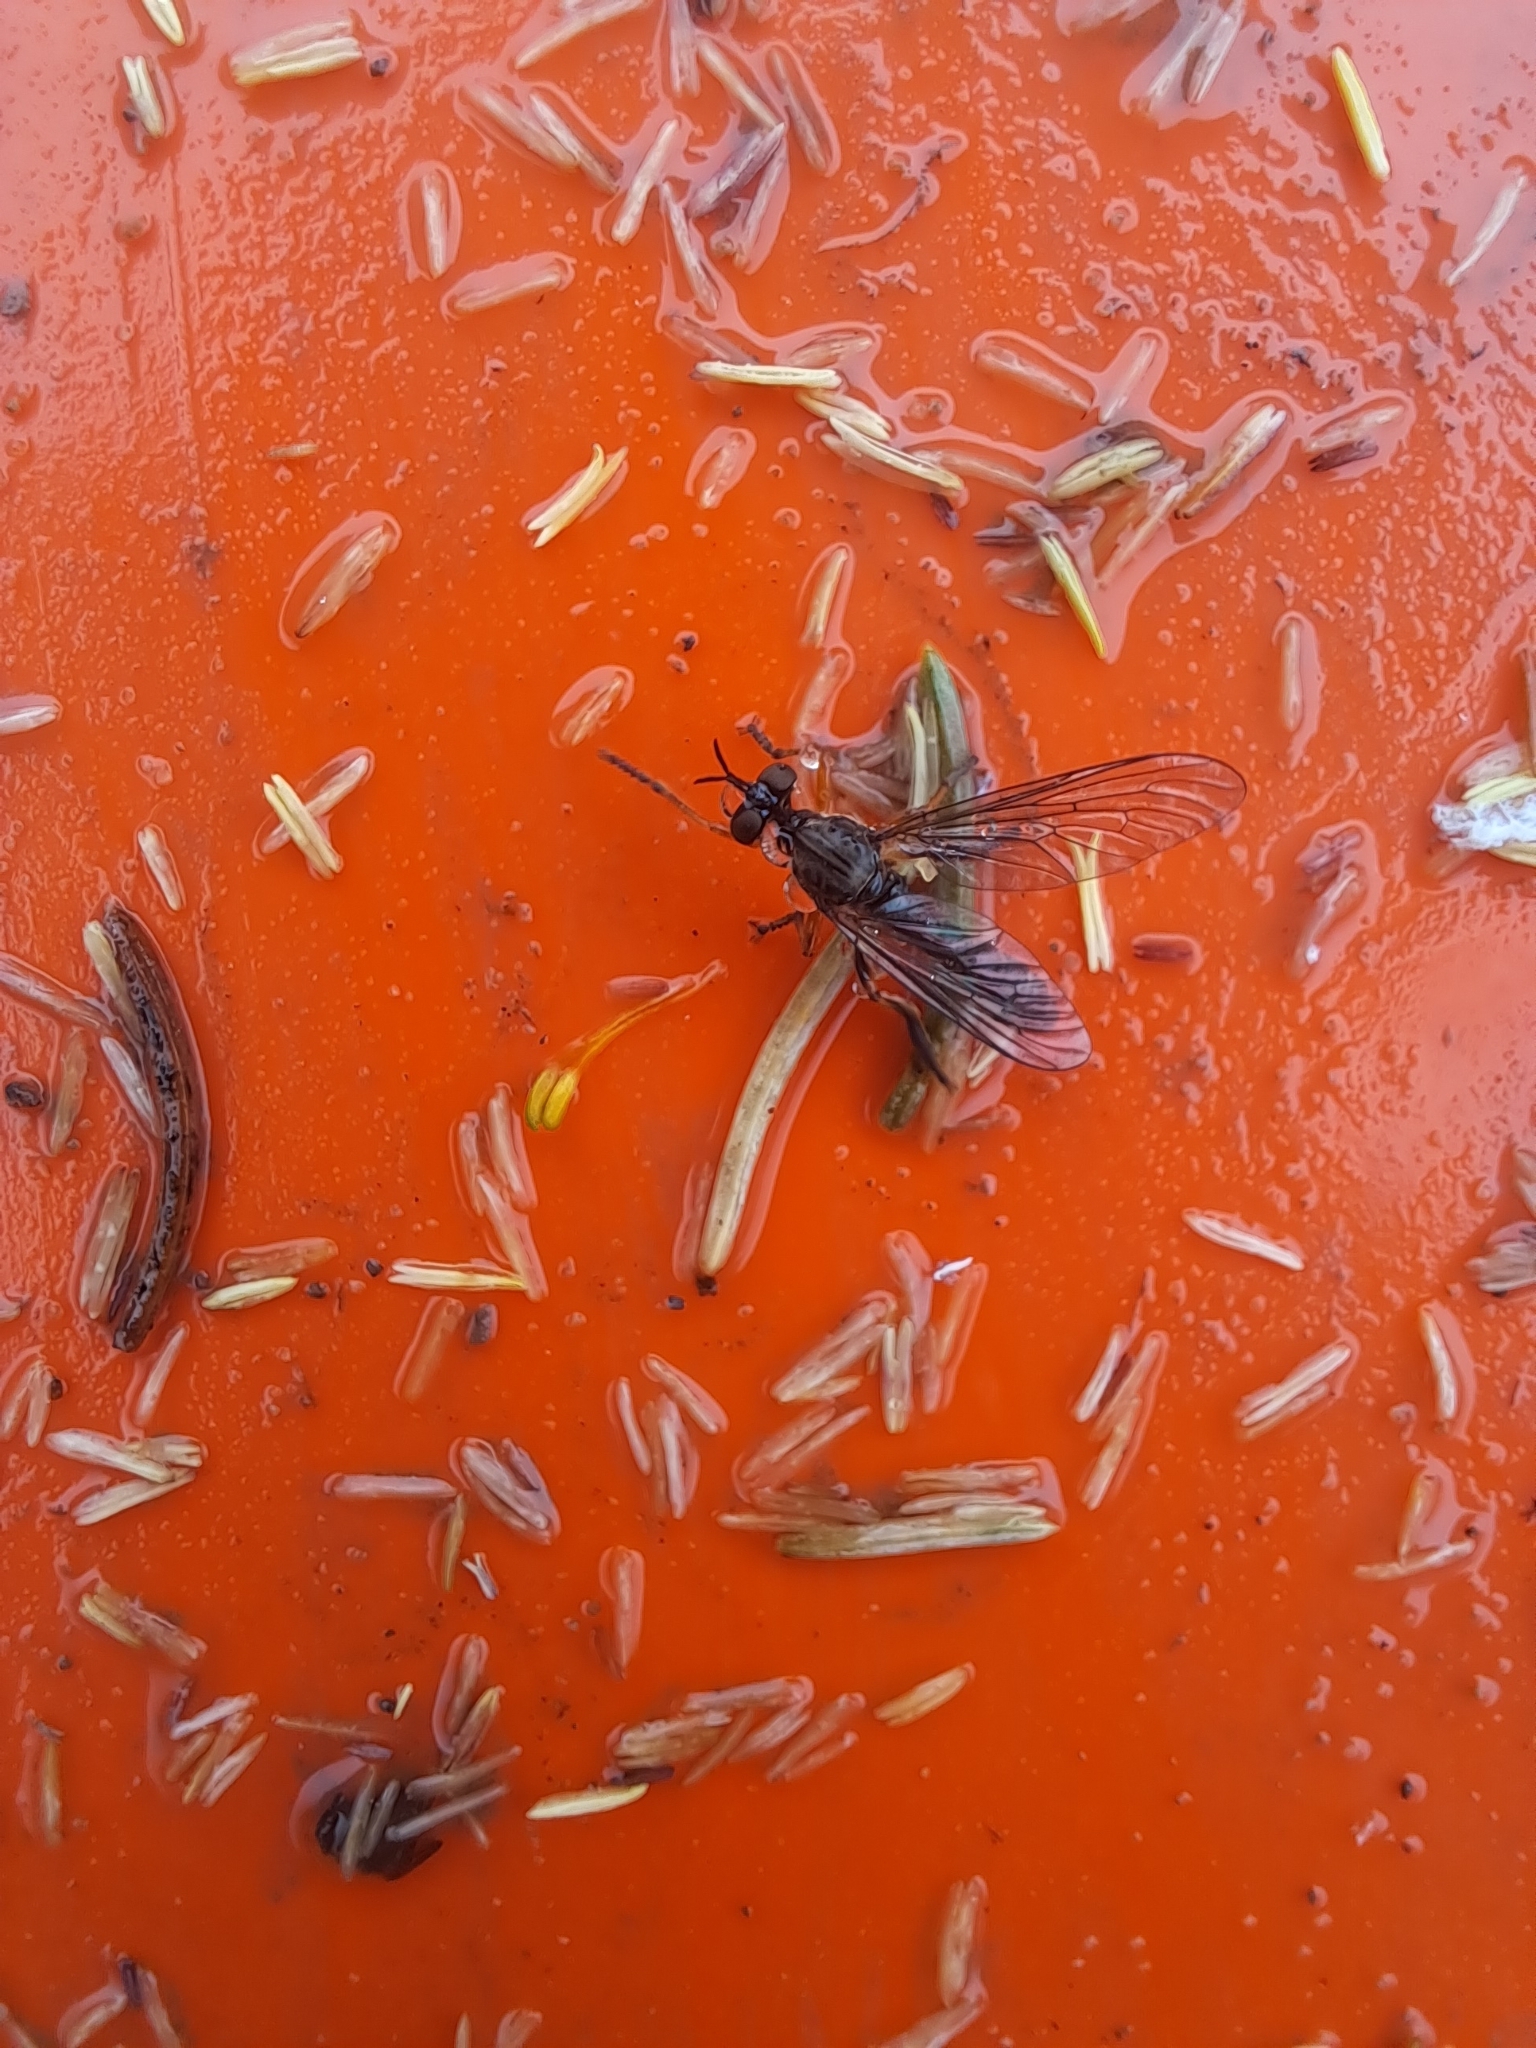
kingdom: Animalia
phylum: Arthropoda
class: Insecta
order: Diptera
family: Asilidae
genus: Dioctria
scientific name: Dioctria hyalipennis
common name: Stripe-legged robberfly
